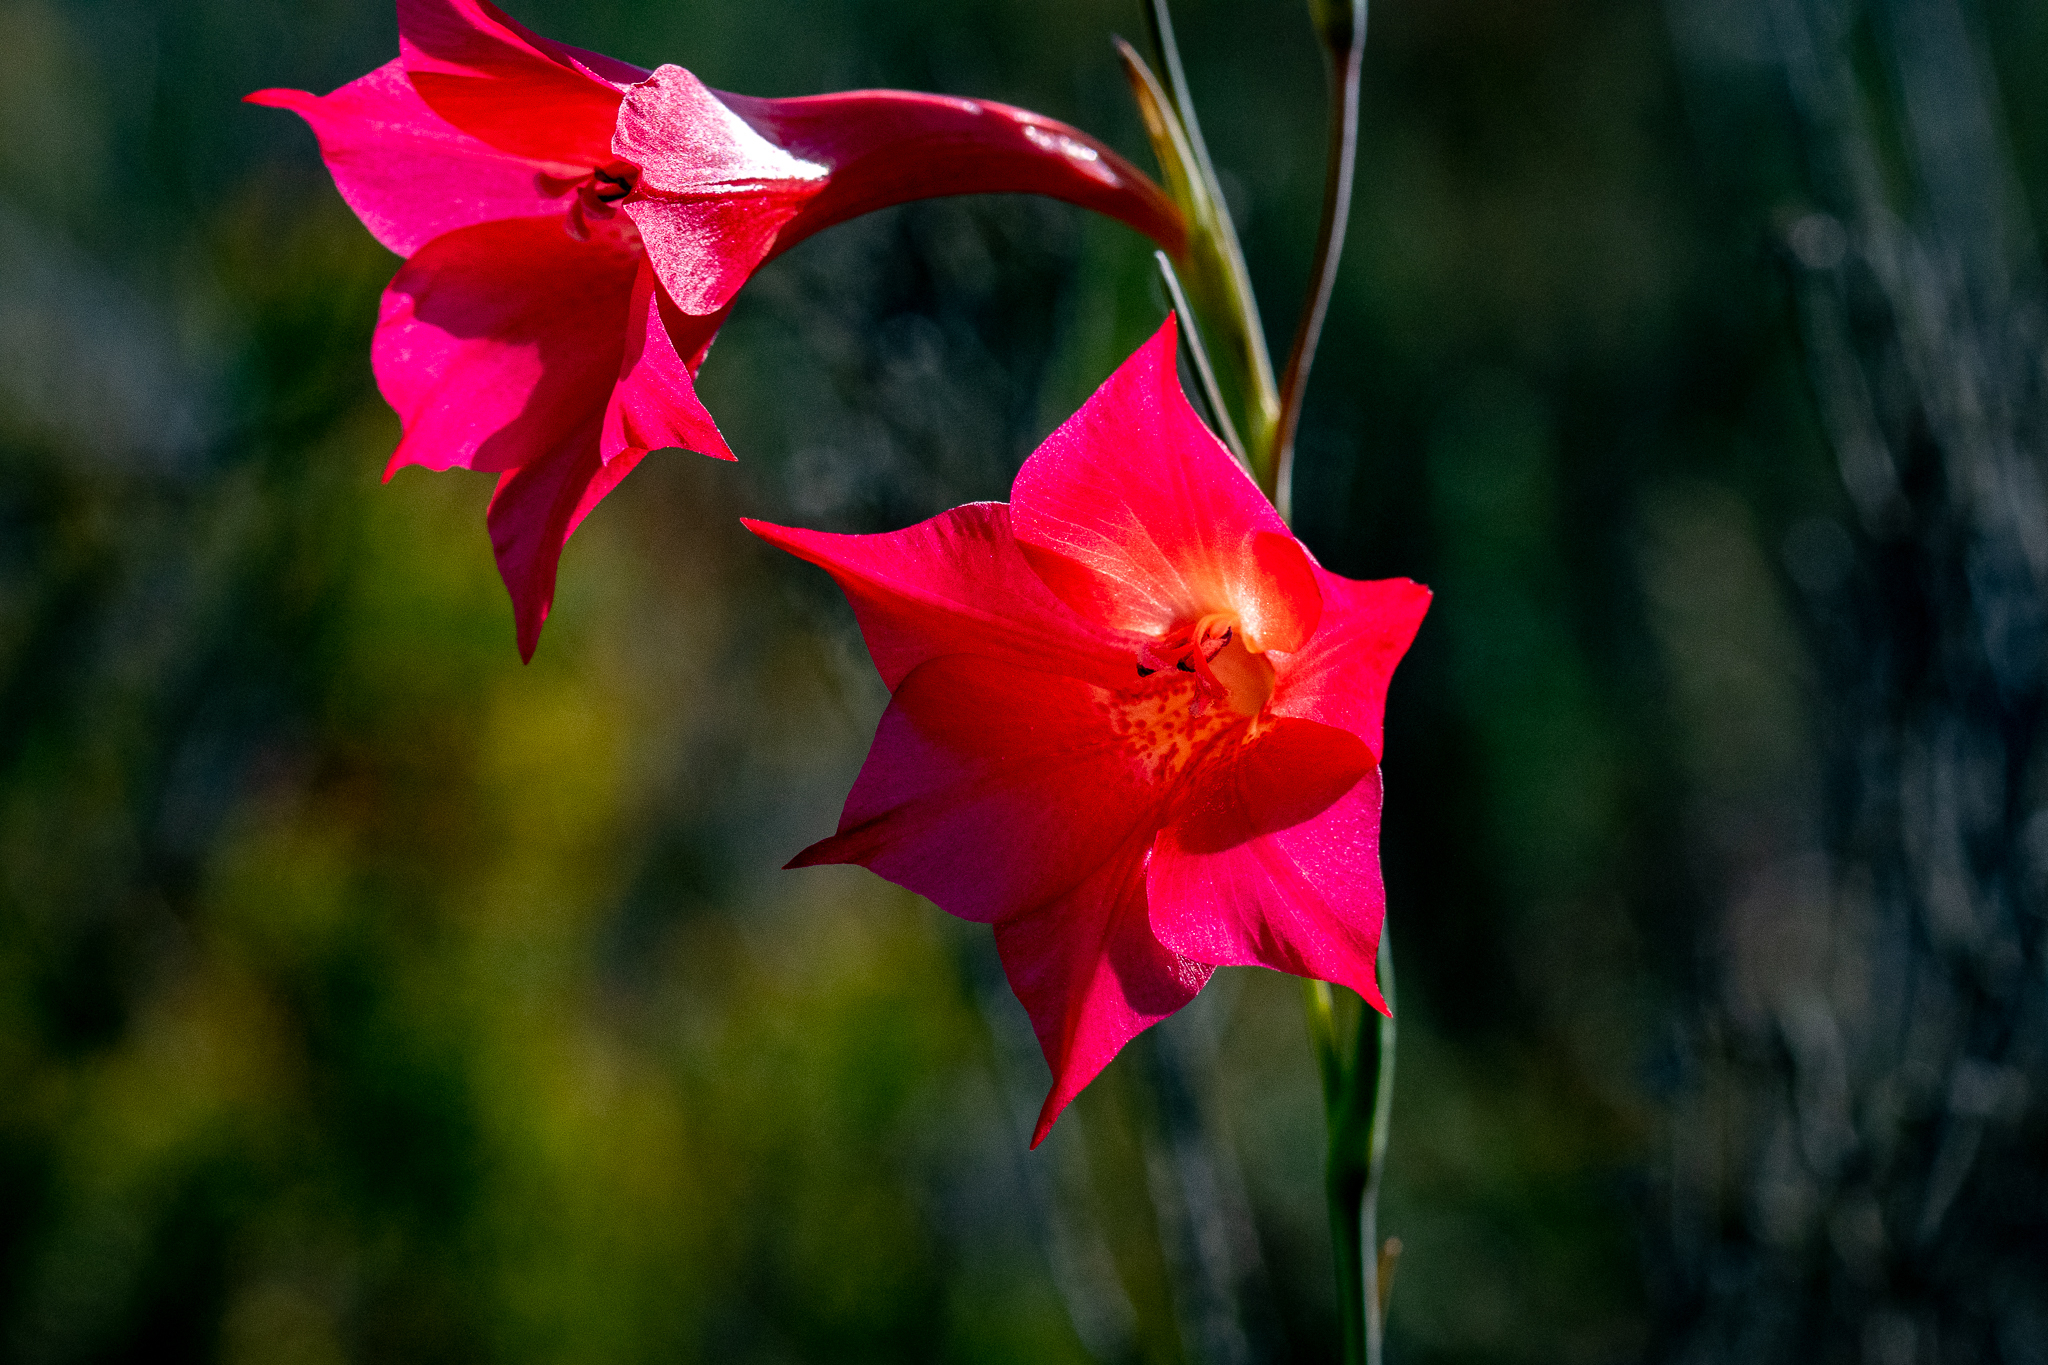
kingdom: Plantae
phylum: Tracheophyta
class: Liliopsida
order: Asparagales
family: Iridaceae
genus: Gladiolus
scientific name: Gladiolus meridionalis
